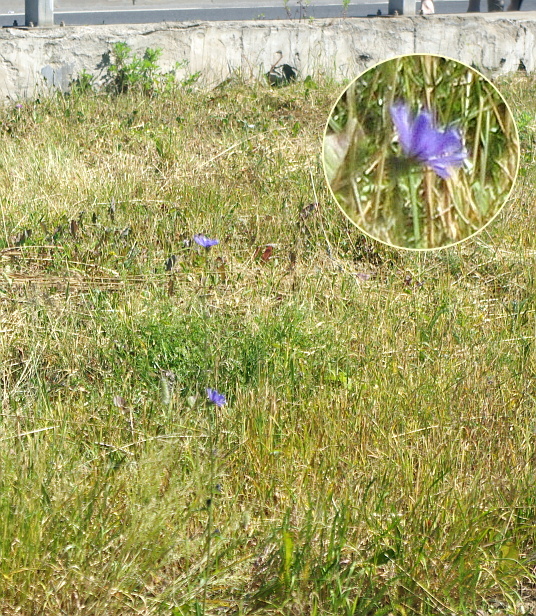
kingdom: Plantae
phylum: Tracheophyta
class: Magnoliopsida
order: Asterales
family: Asteraceae
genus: Cichorium
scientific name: Cichorium intybus
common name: Chicory
